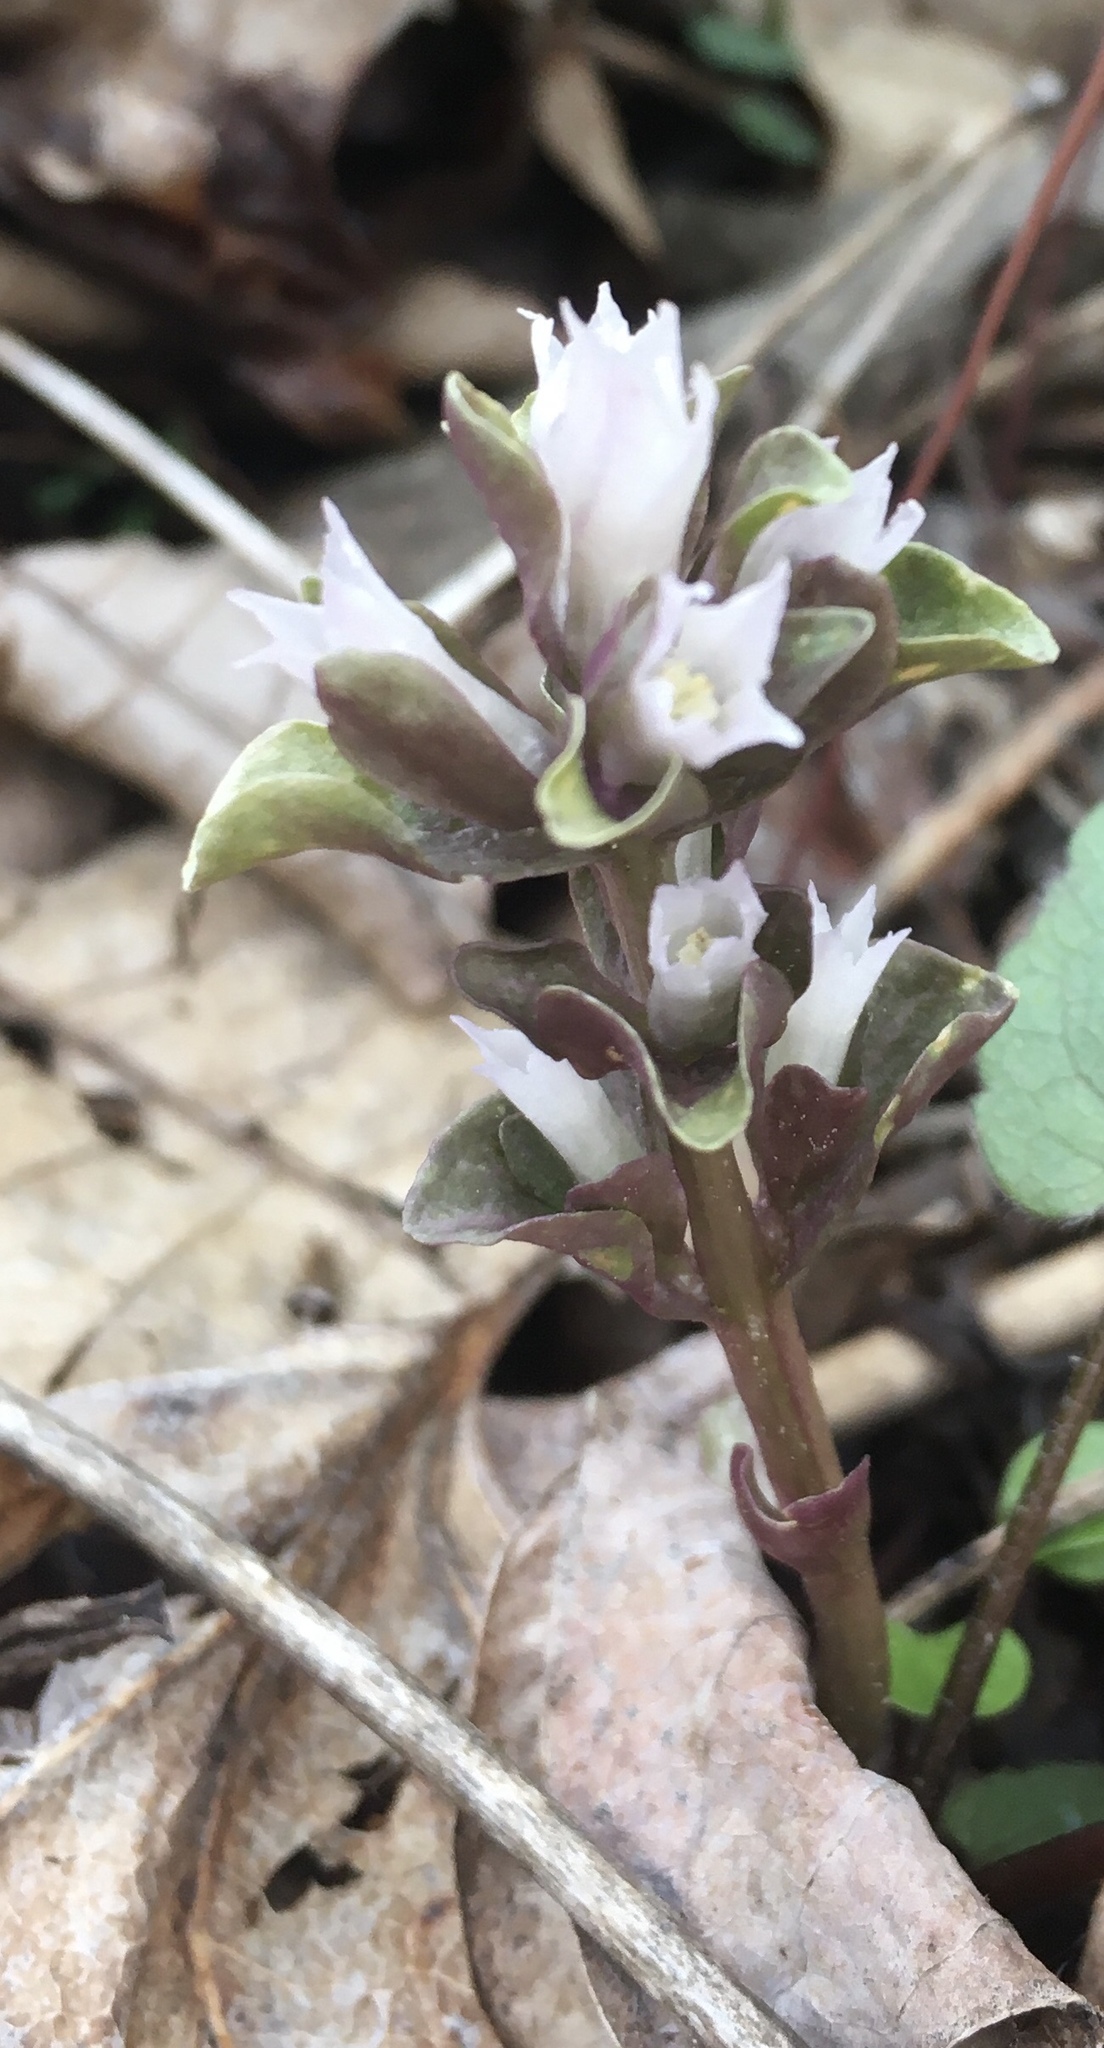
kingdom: Plantae
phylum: Tracheophyta
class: Magnoliopsida
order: Gentianales
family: Gentianaceae
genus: Obolaria
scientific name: Obolaria virginica
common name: Pennywort
